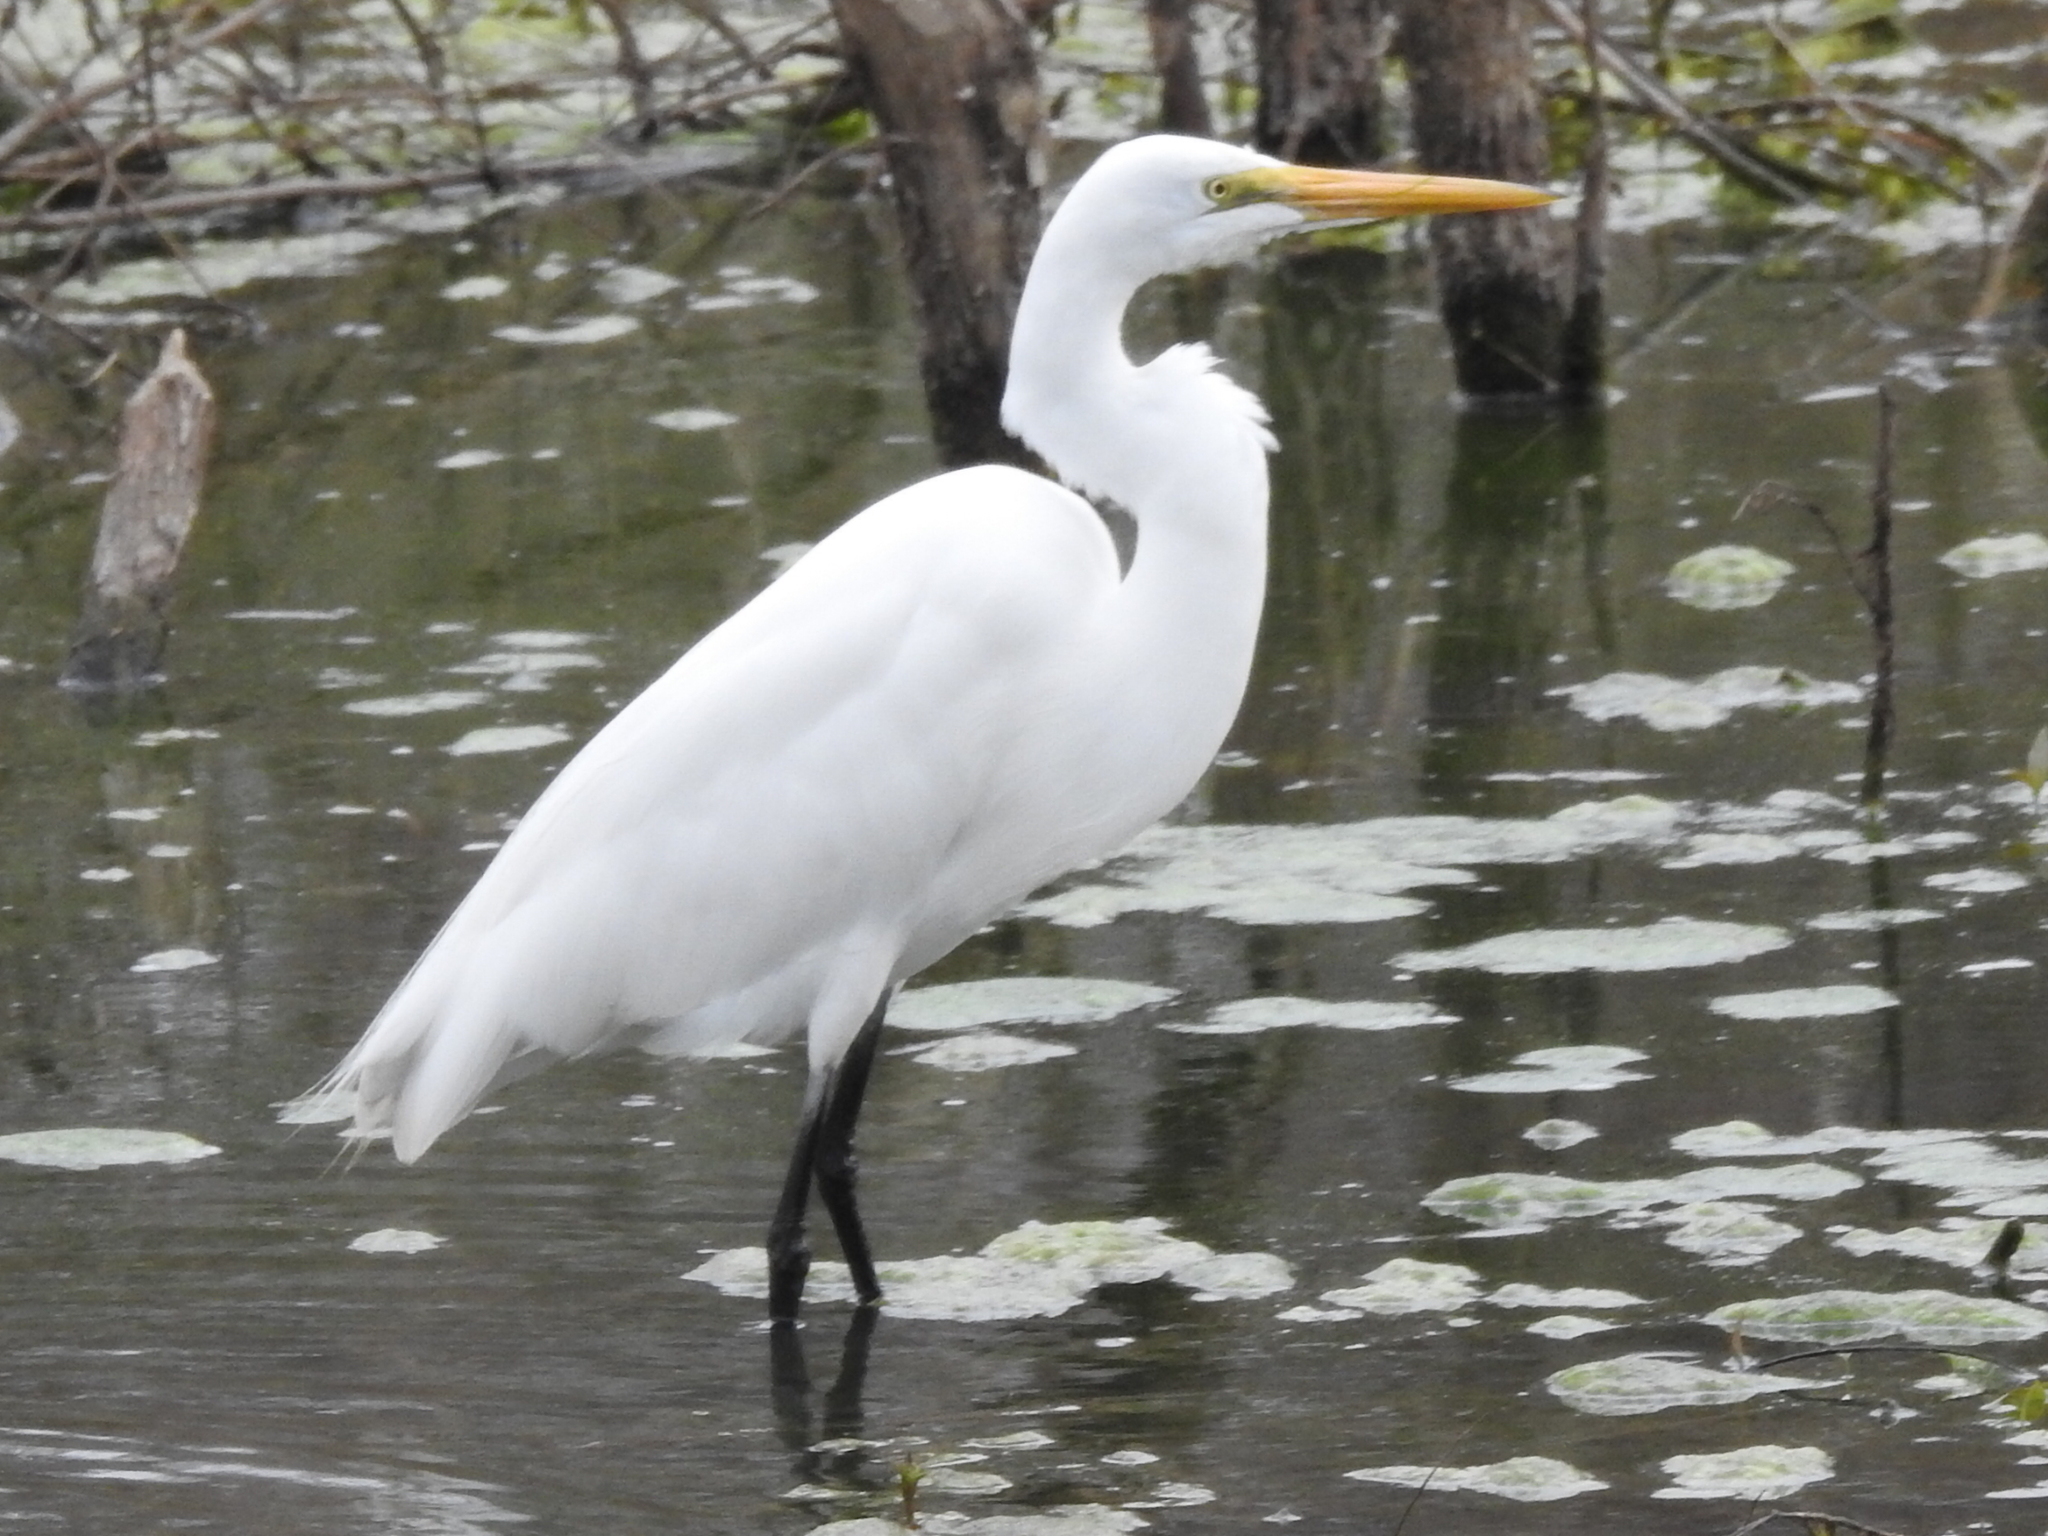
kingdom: Animalia
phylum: Chordata
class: Aves
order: Pelecaniformes
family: Ardeidae
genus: Ardea
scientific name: Ardea alba
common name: Great egret
